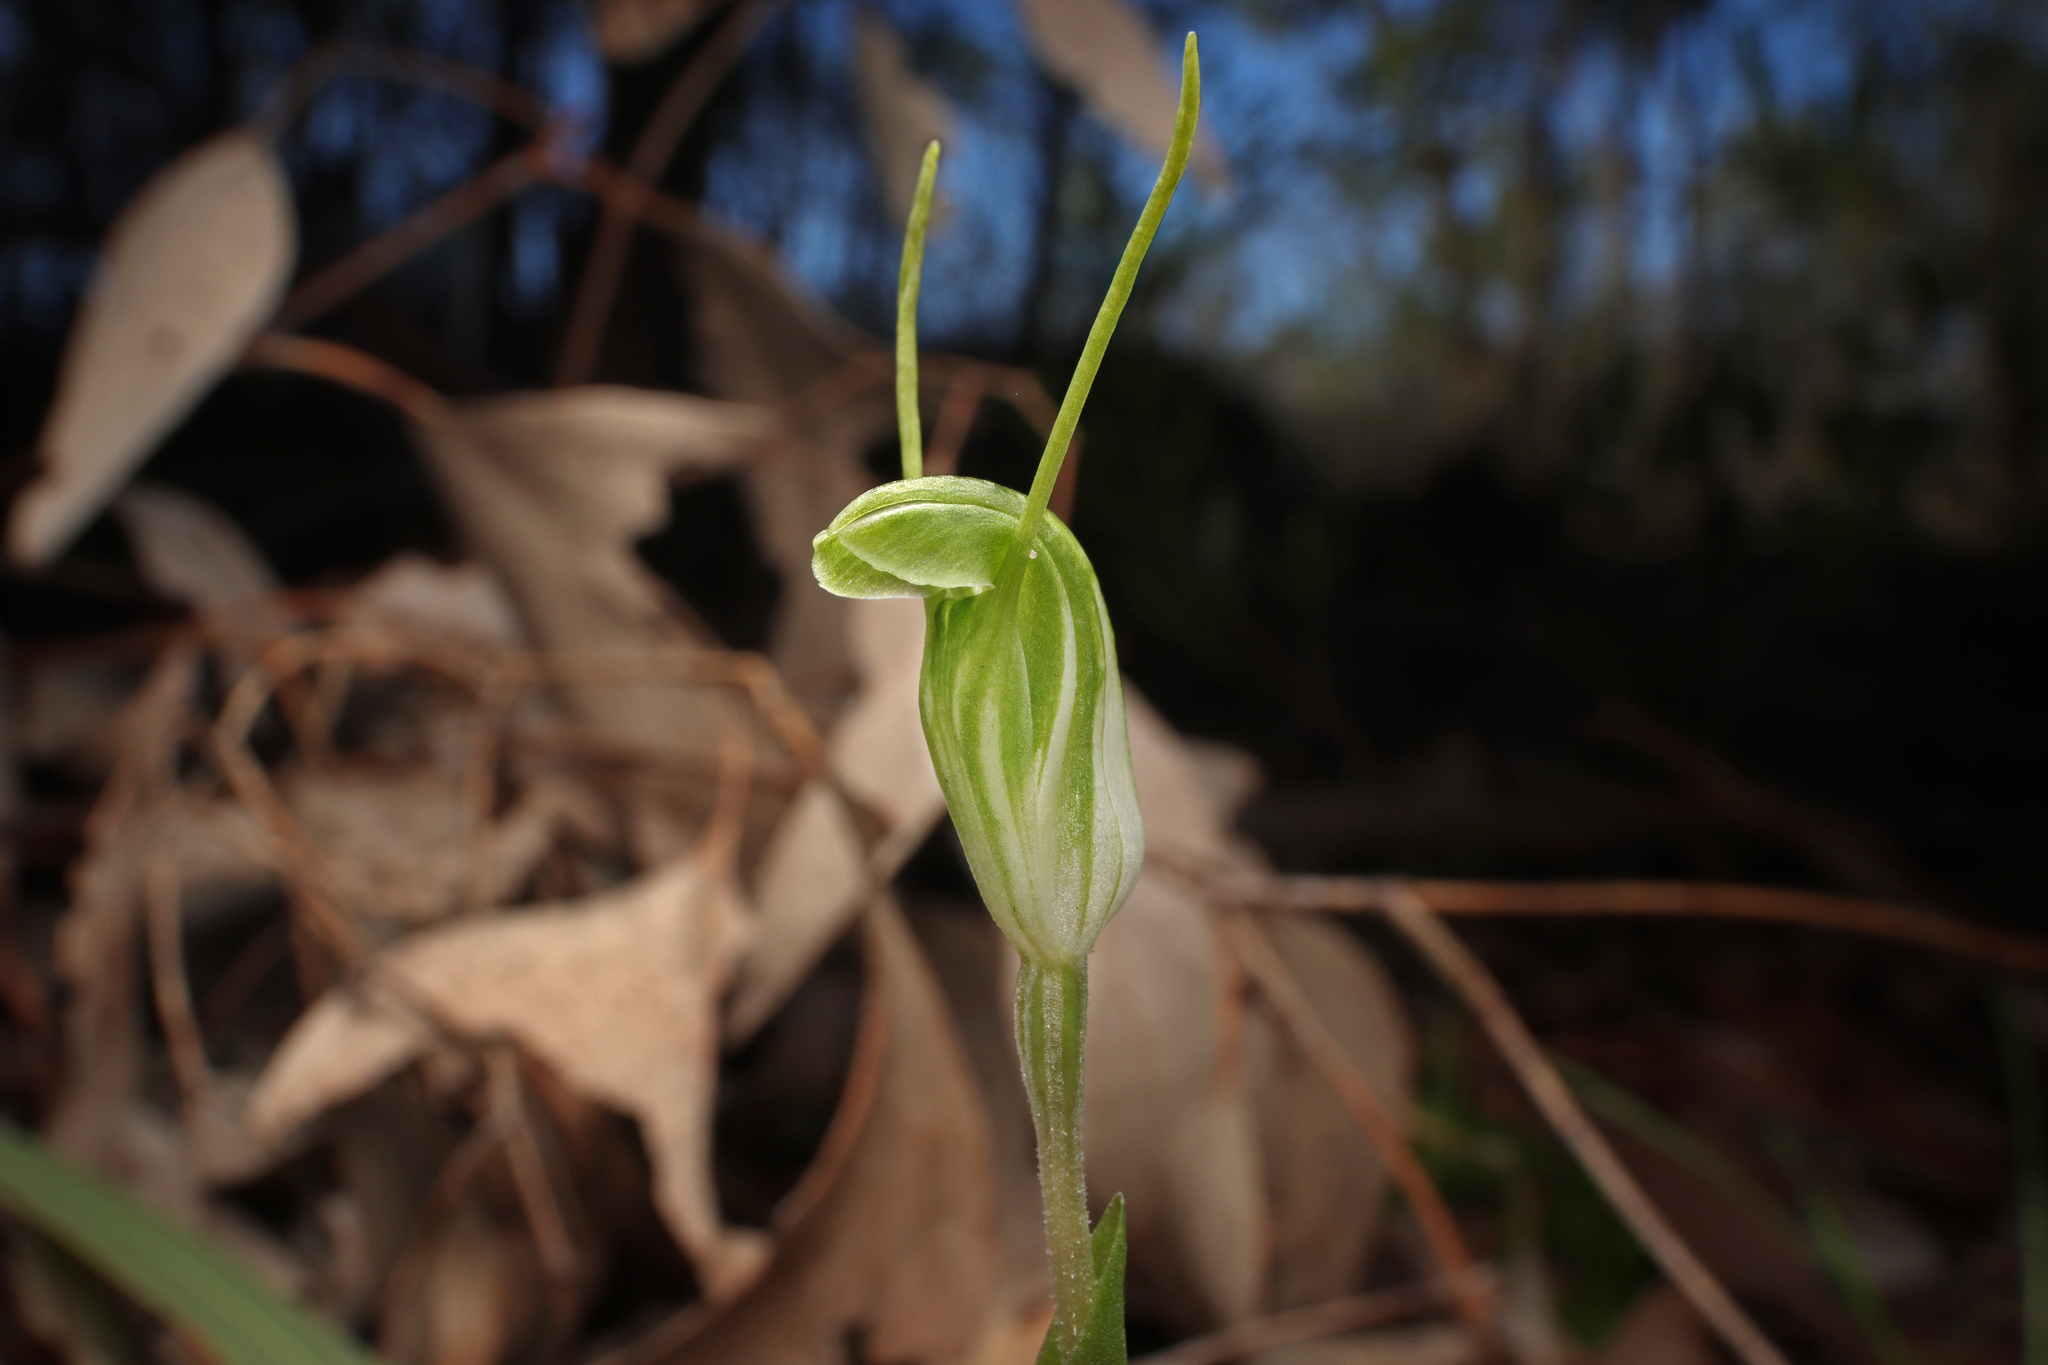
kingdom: Plantae
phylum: Tracheophyta
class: Liliopsida
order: Asparagales
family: Orchidaceae
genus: Pterostylis
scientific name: Pterostylis nana
